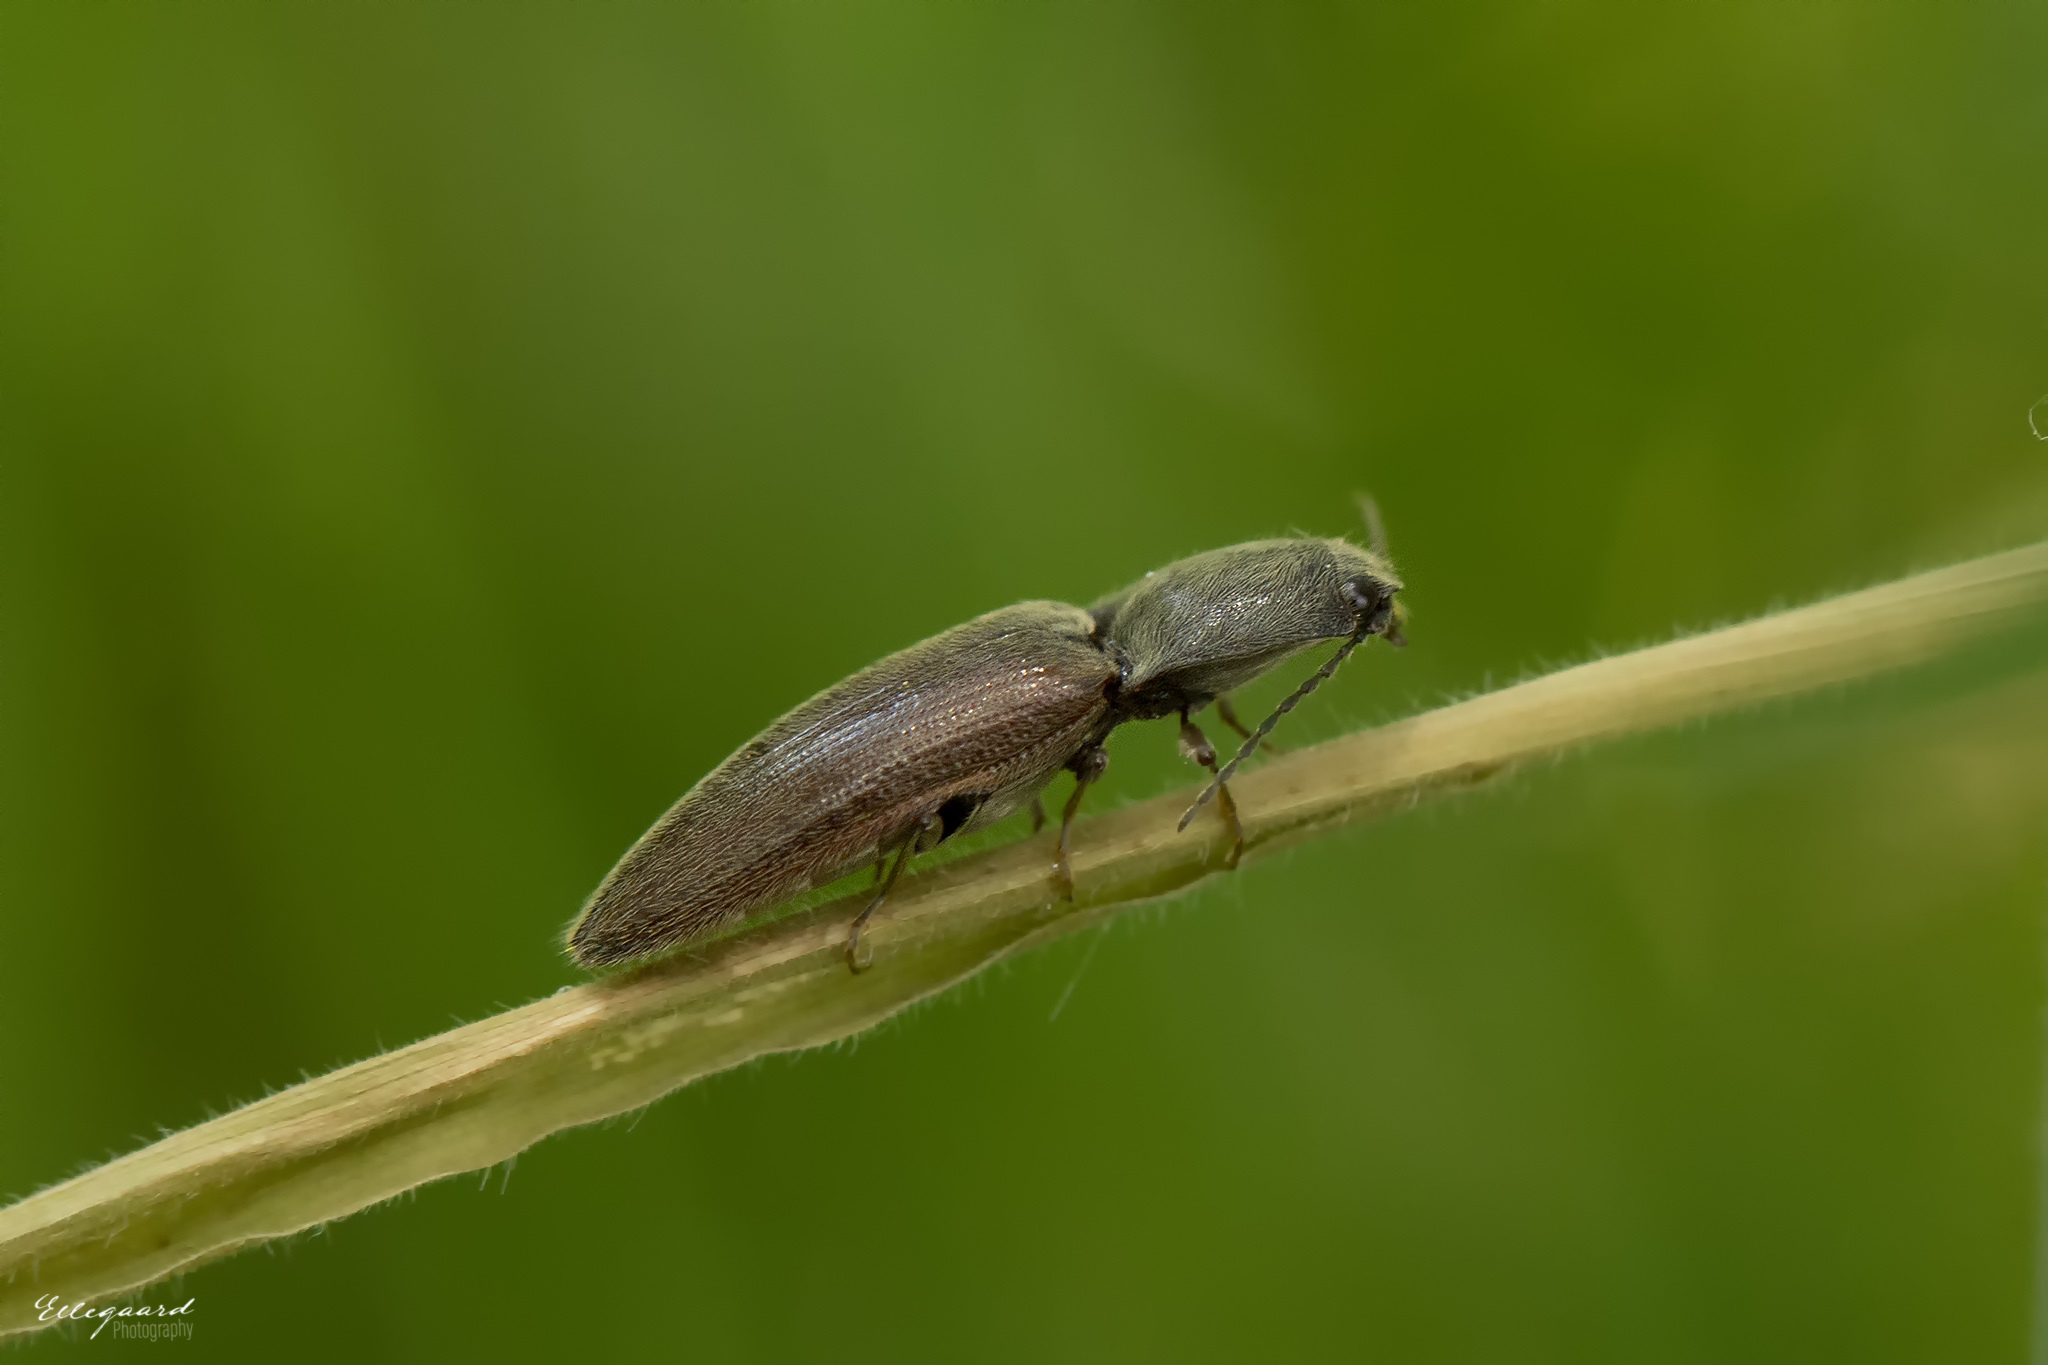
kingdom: Animalia
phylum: Arthropoda
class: Insecta
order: Coleoptera
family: Elateridae
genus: Athous
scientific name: Athous haemorrhoidalis
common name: Red-brown click beetle
